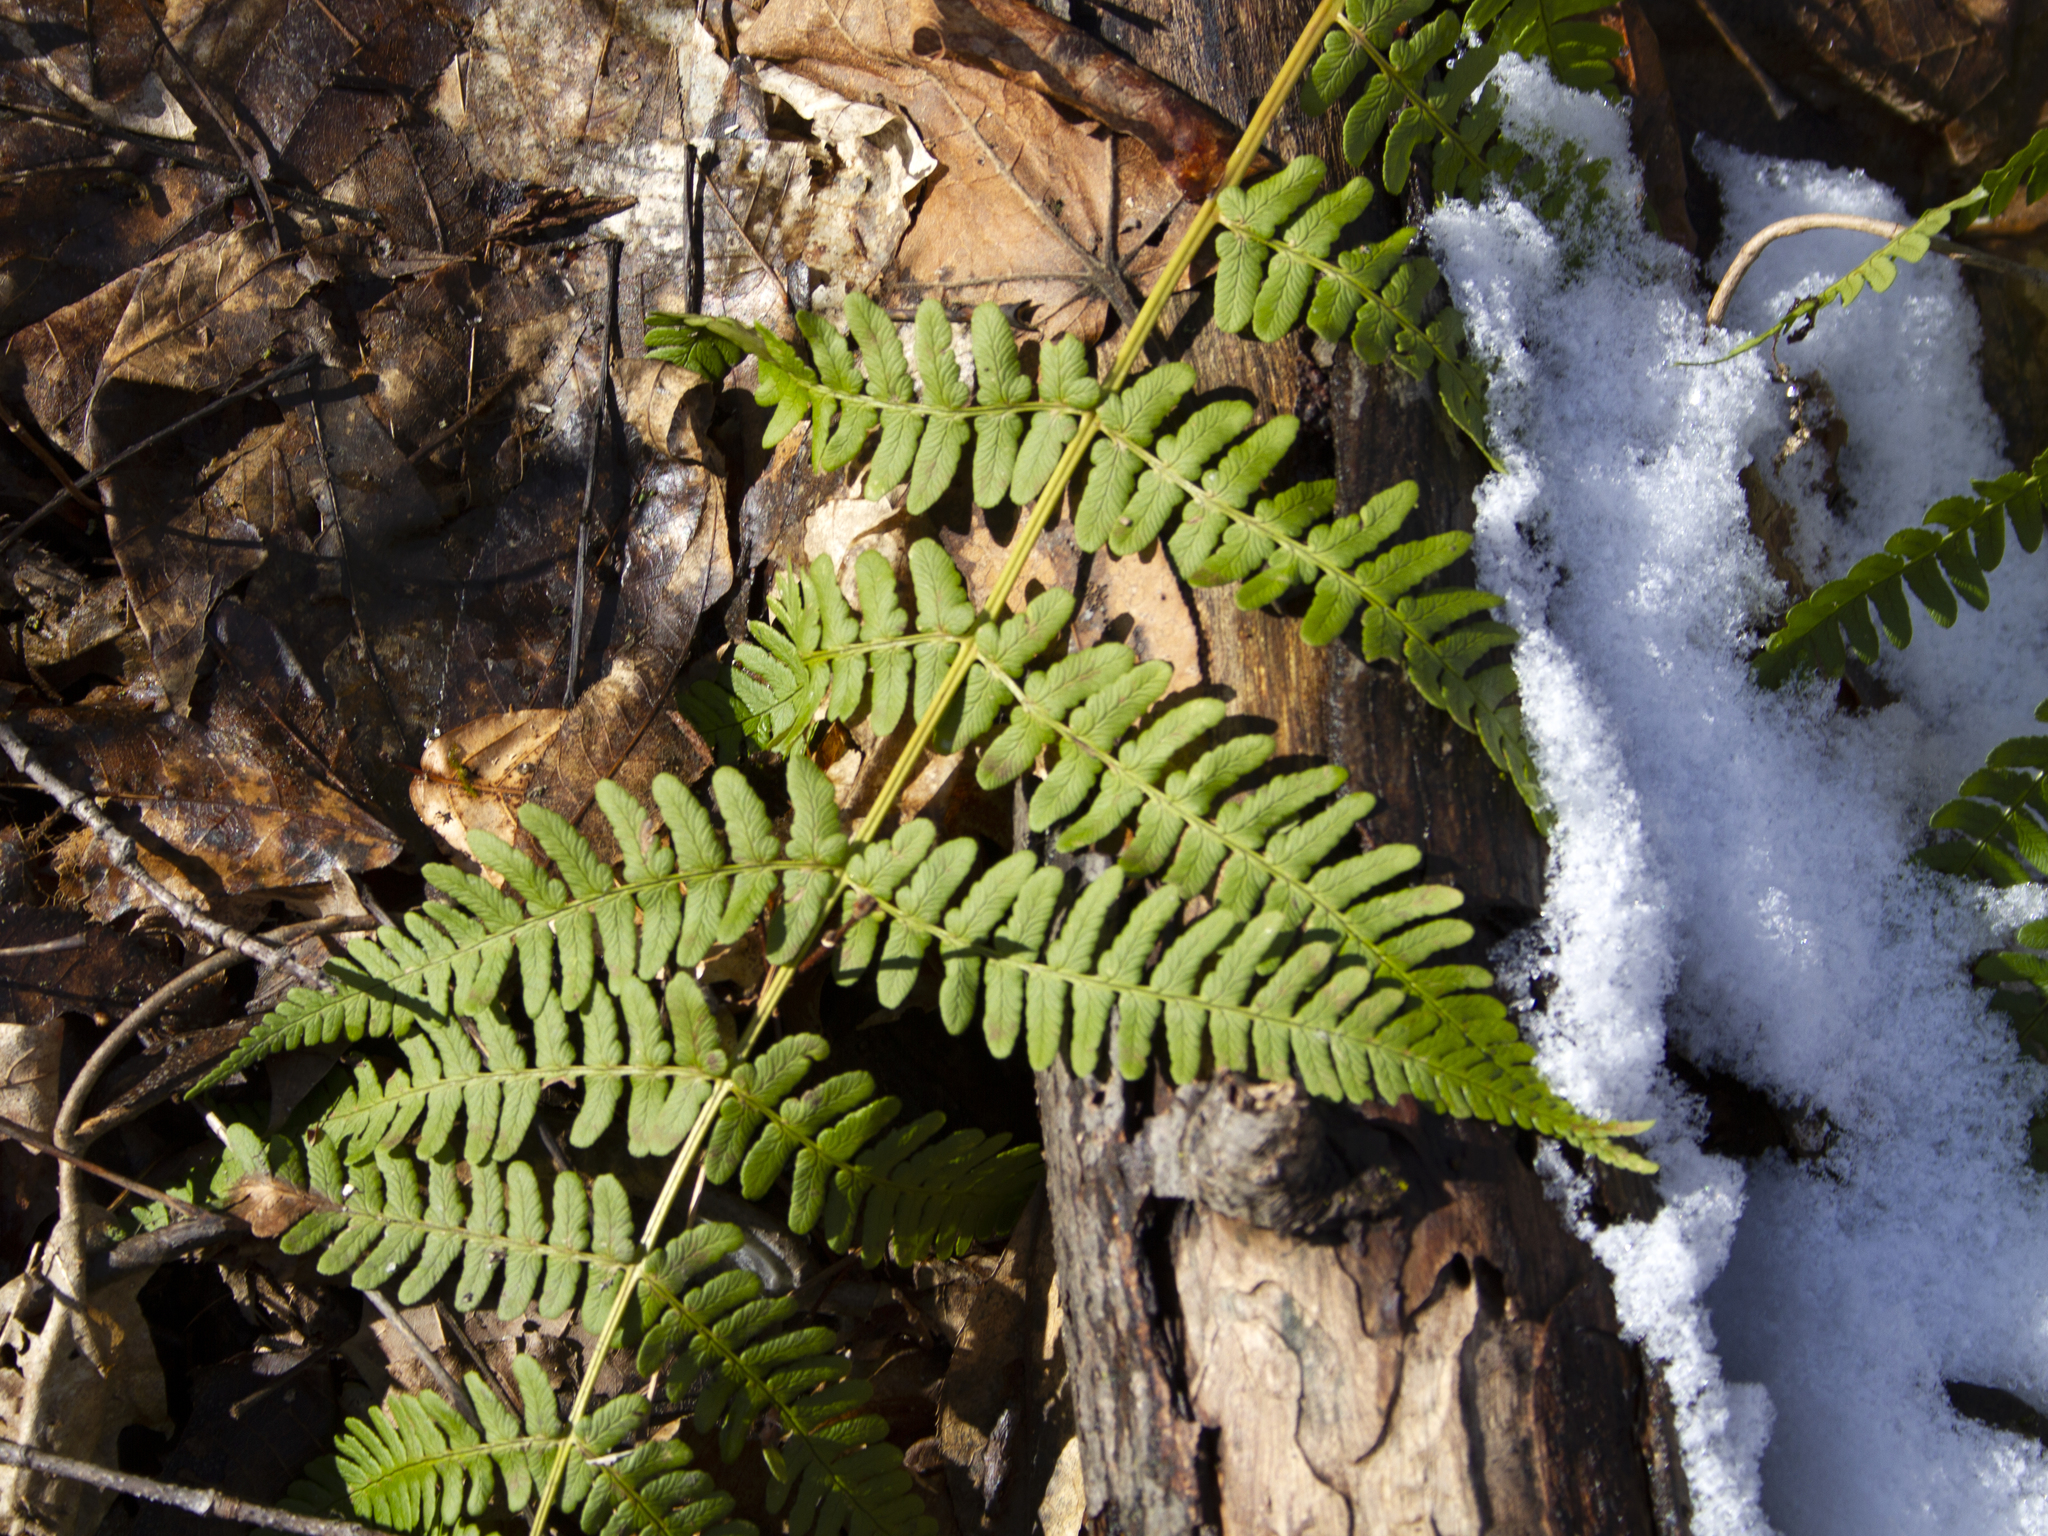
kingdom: Plantae
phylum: Tracheophyta
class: Polypodiopsida
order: Polypodiales
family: Dryopteridaceae
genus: Dryopteris
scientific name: Dryopteris marginalis
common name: Marginal wood fern
